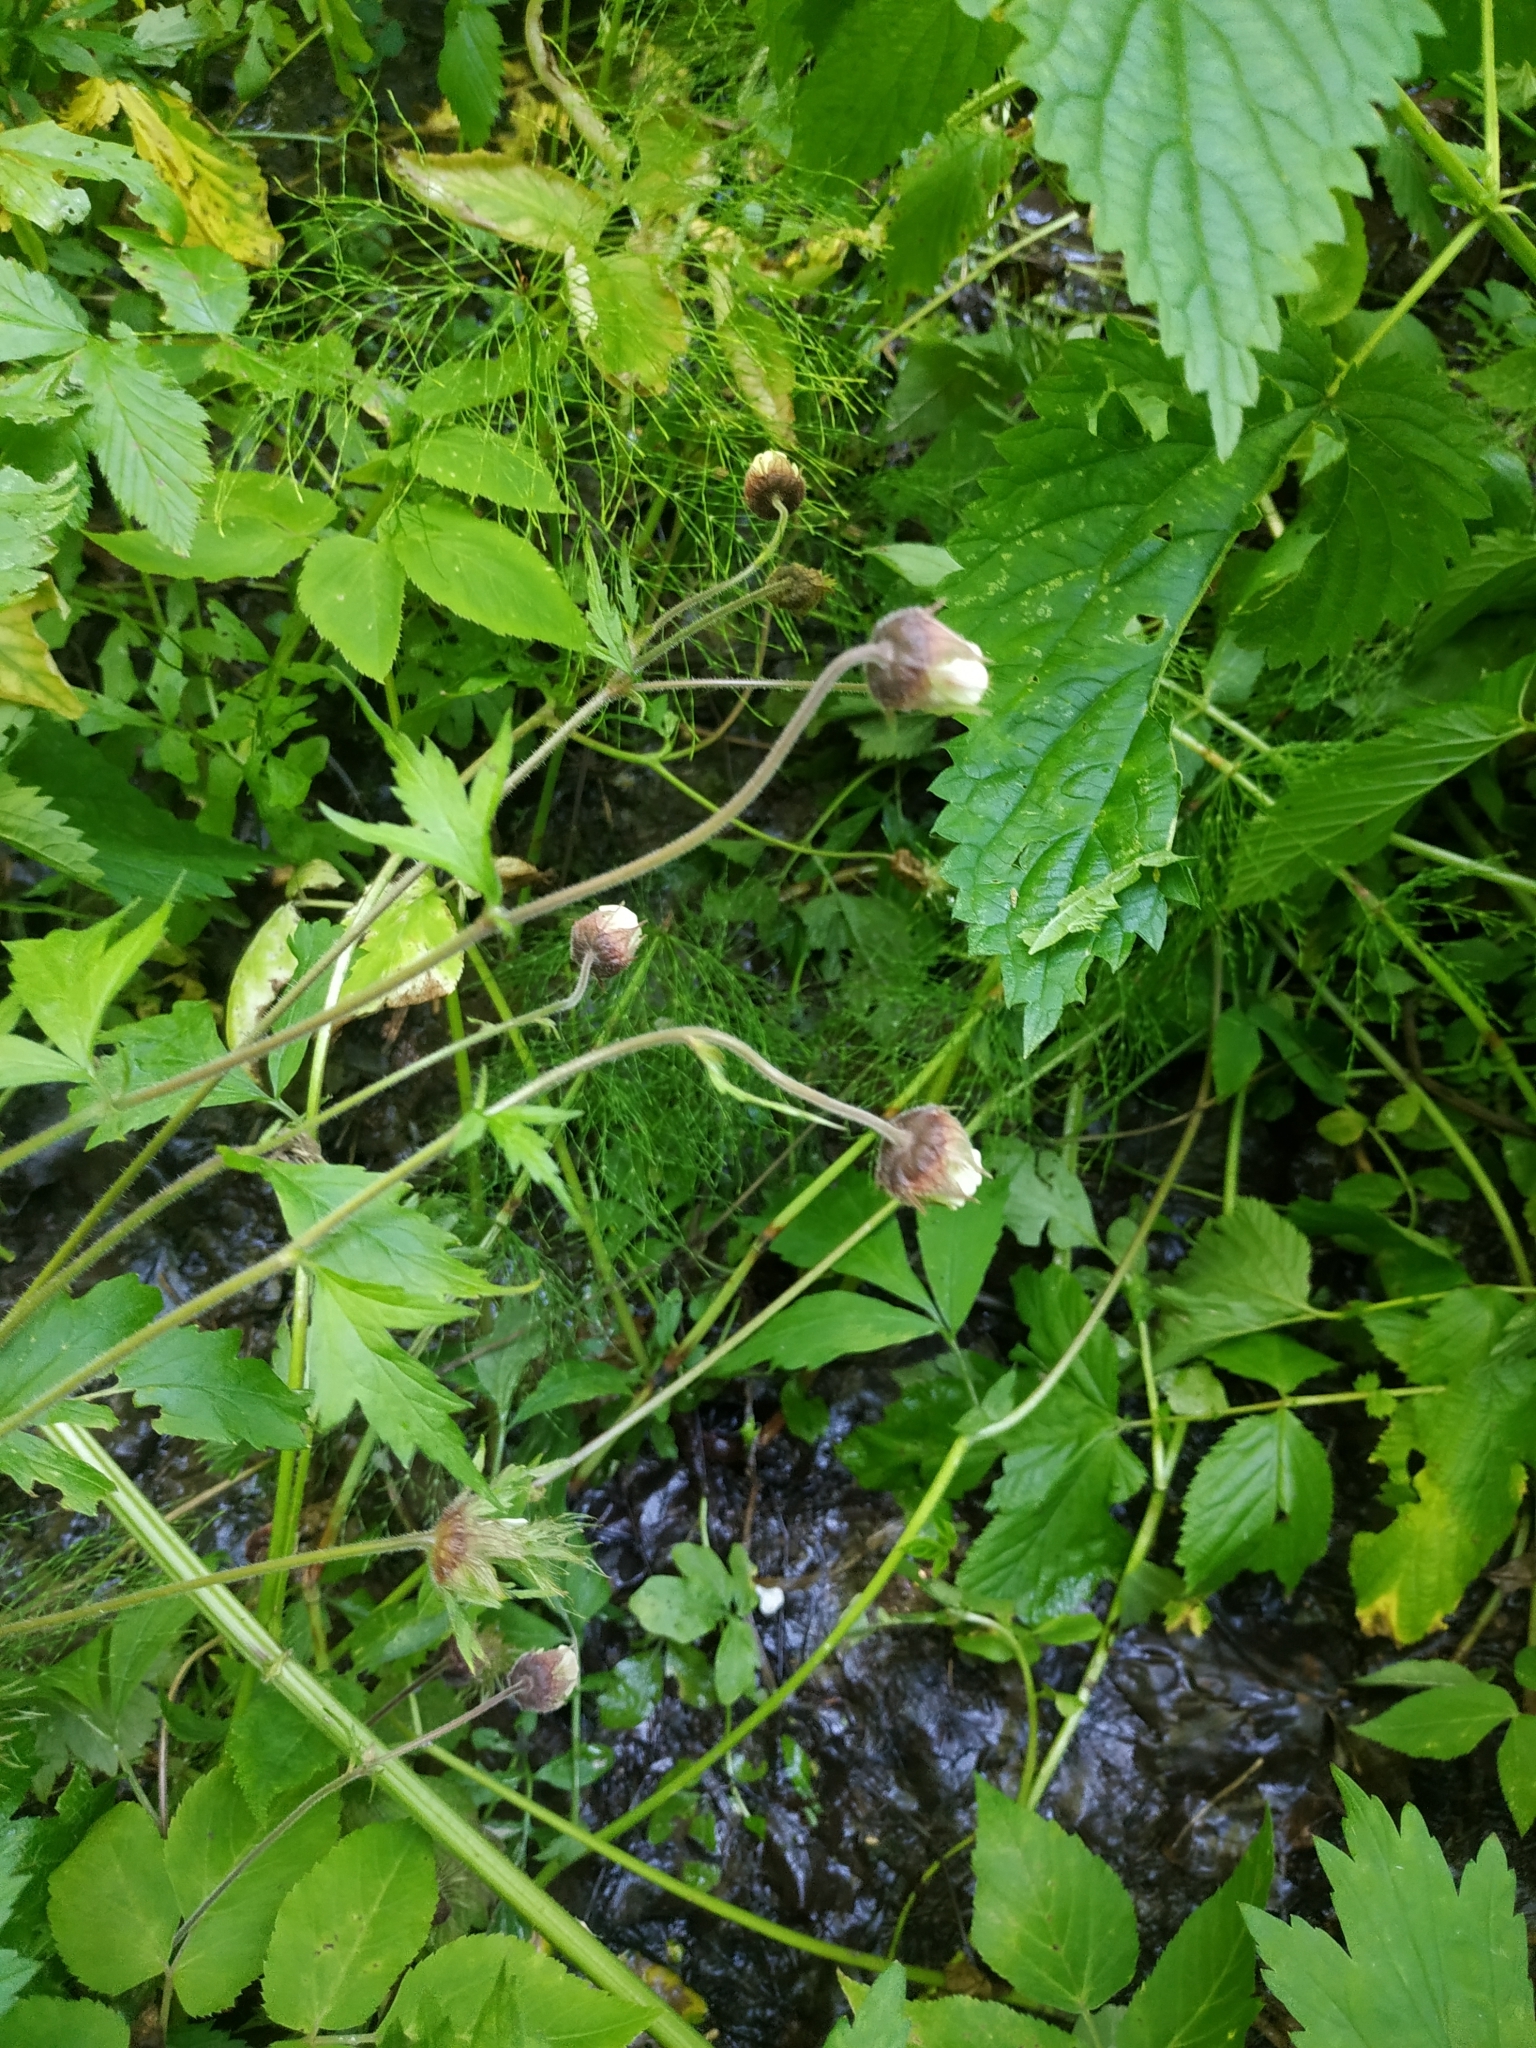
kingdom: Plantae
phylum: Tracheophyta
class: Magnoliopsida
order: Rosales
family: Rosaceae
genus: Geum
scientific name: Geum rivale
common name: Water avens
